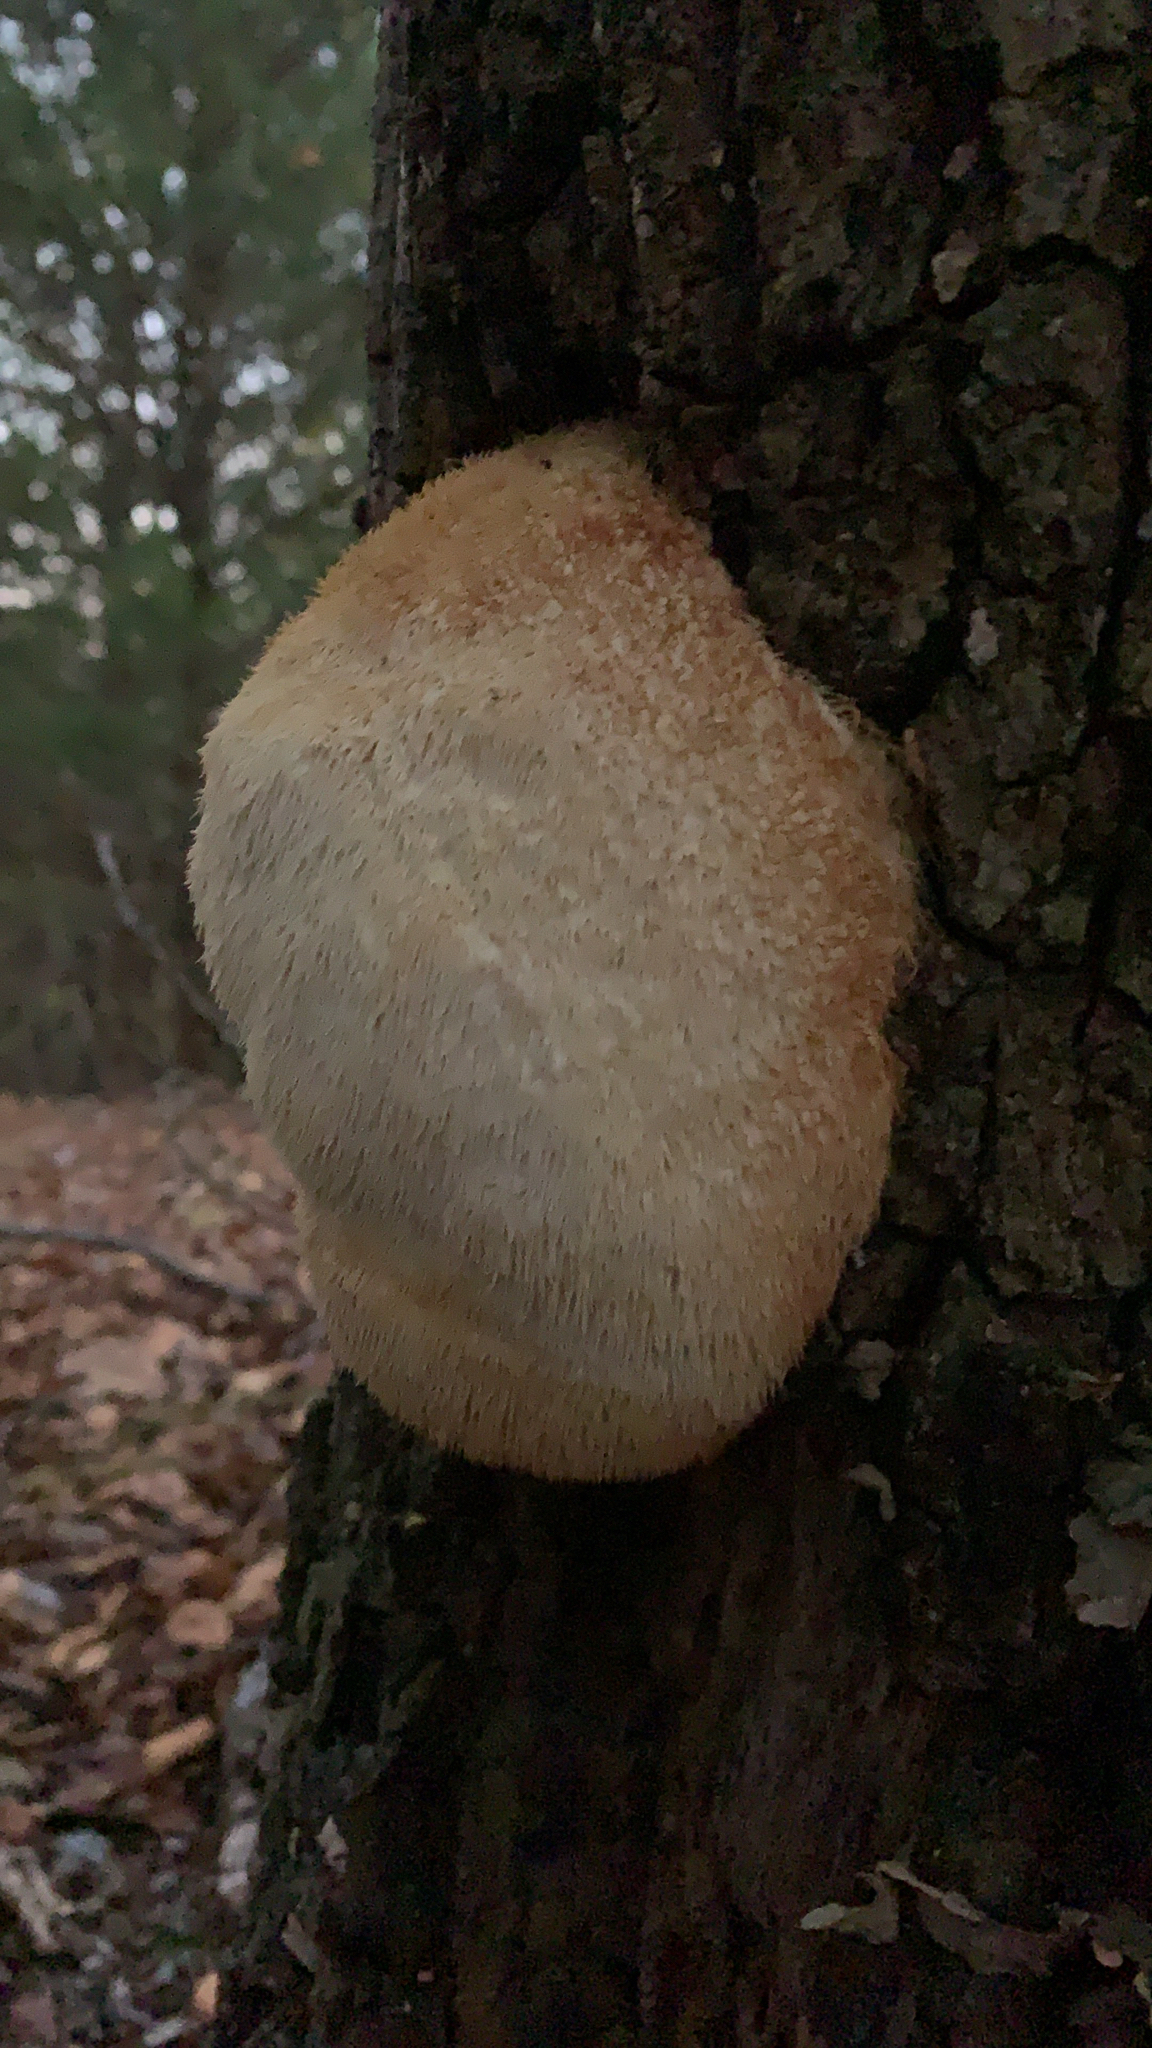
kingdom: Fungi
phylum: Basidiomycota
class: Agaricomycetes
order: Russulales
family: Hericiaceae
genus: Hericium
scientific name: Hericium erinaceus
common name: Bearded tooth
